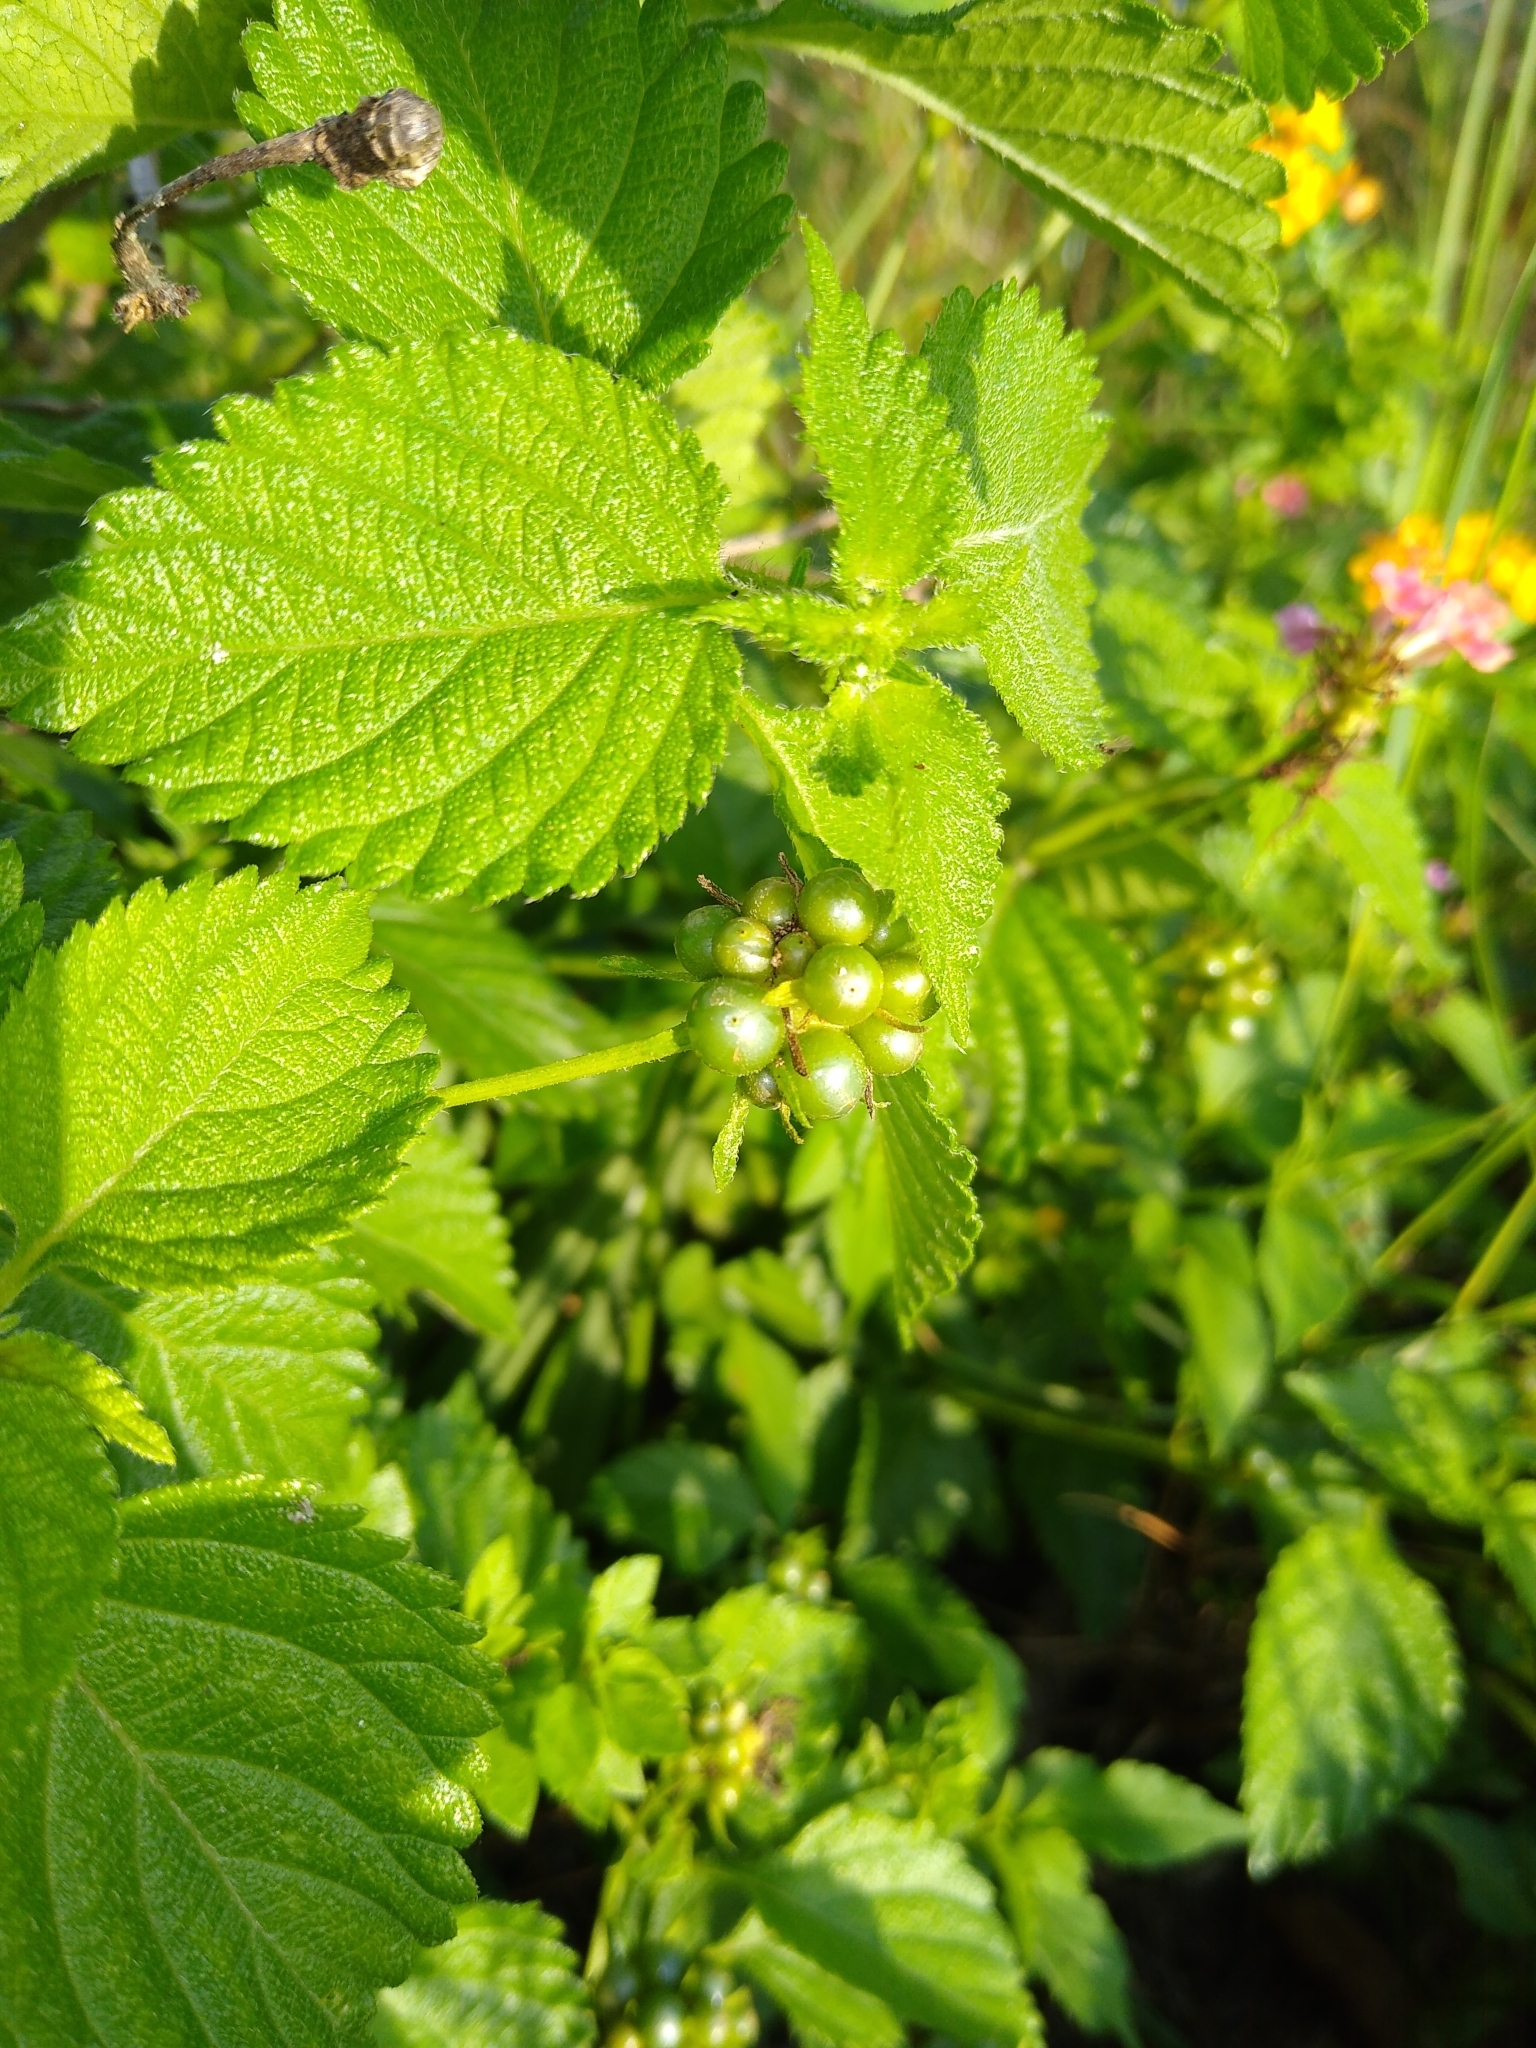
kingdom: Plantae
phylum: Tracheophyta
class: Magnoliopsida
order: Lamiales
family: Verbenaceae
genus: Lantana
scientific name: Lantana camara
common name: Lantana
